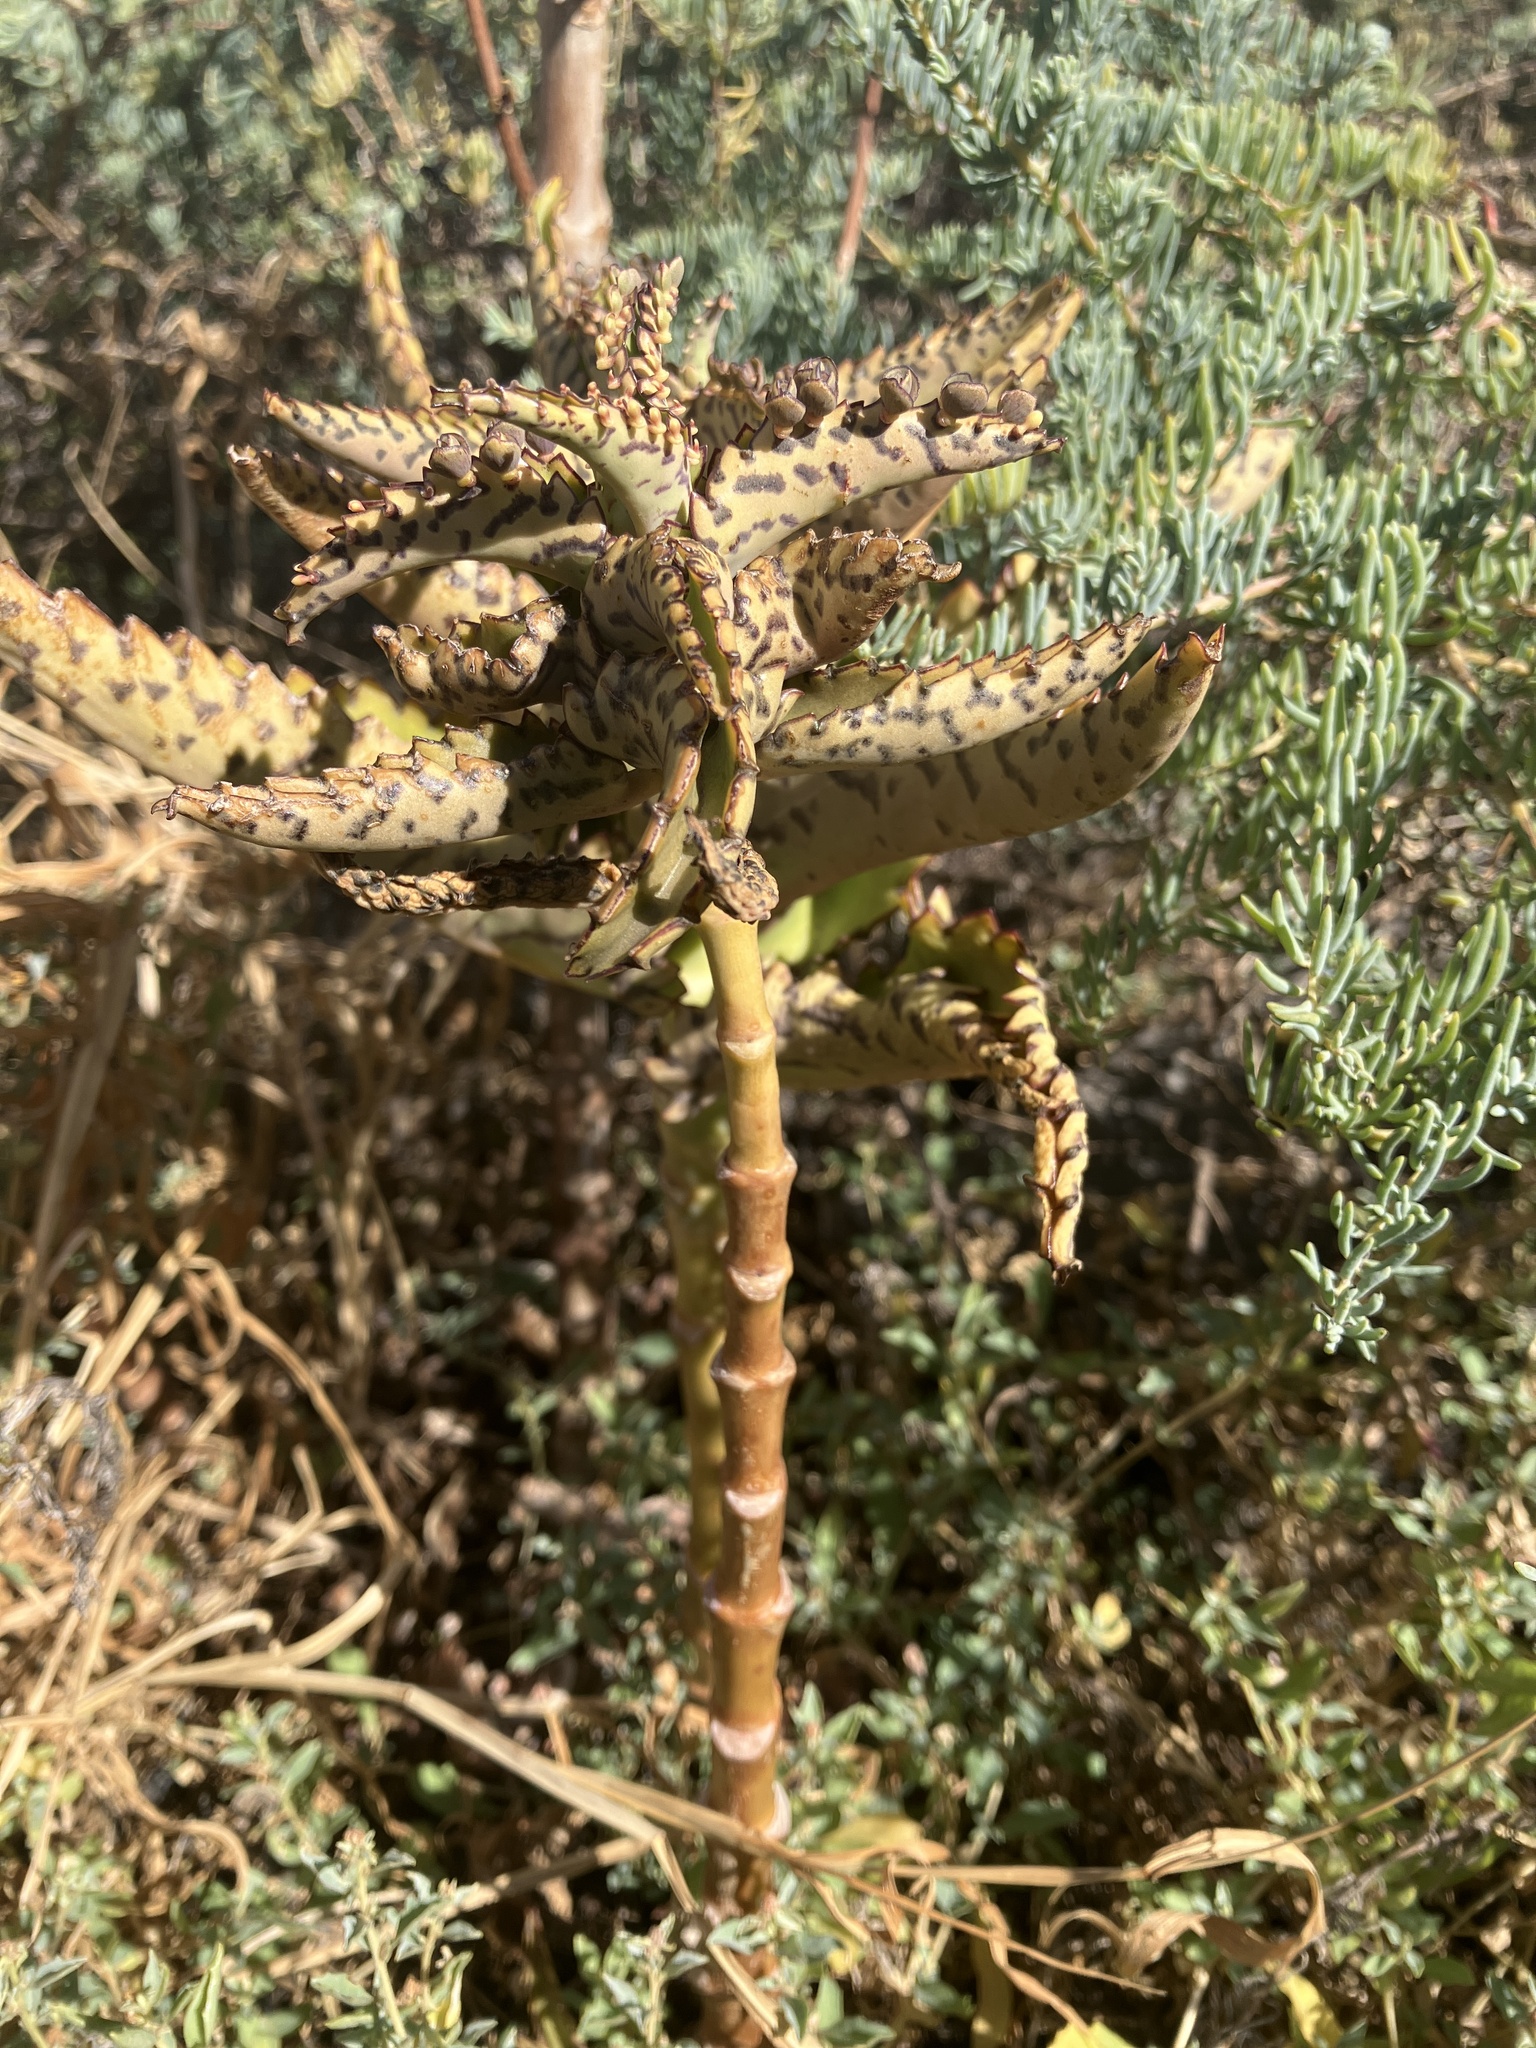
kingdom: Plantae
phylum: Tracheophyta
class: Magnoliopsida
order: Saxifragales
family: Crassulaceae
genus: Kalanchoe
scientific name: Kalanchoe daigremontiana
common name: Devil's backbone
